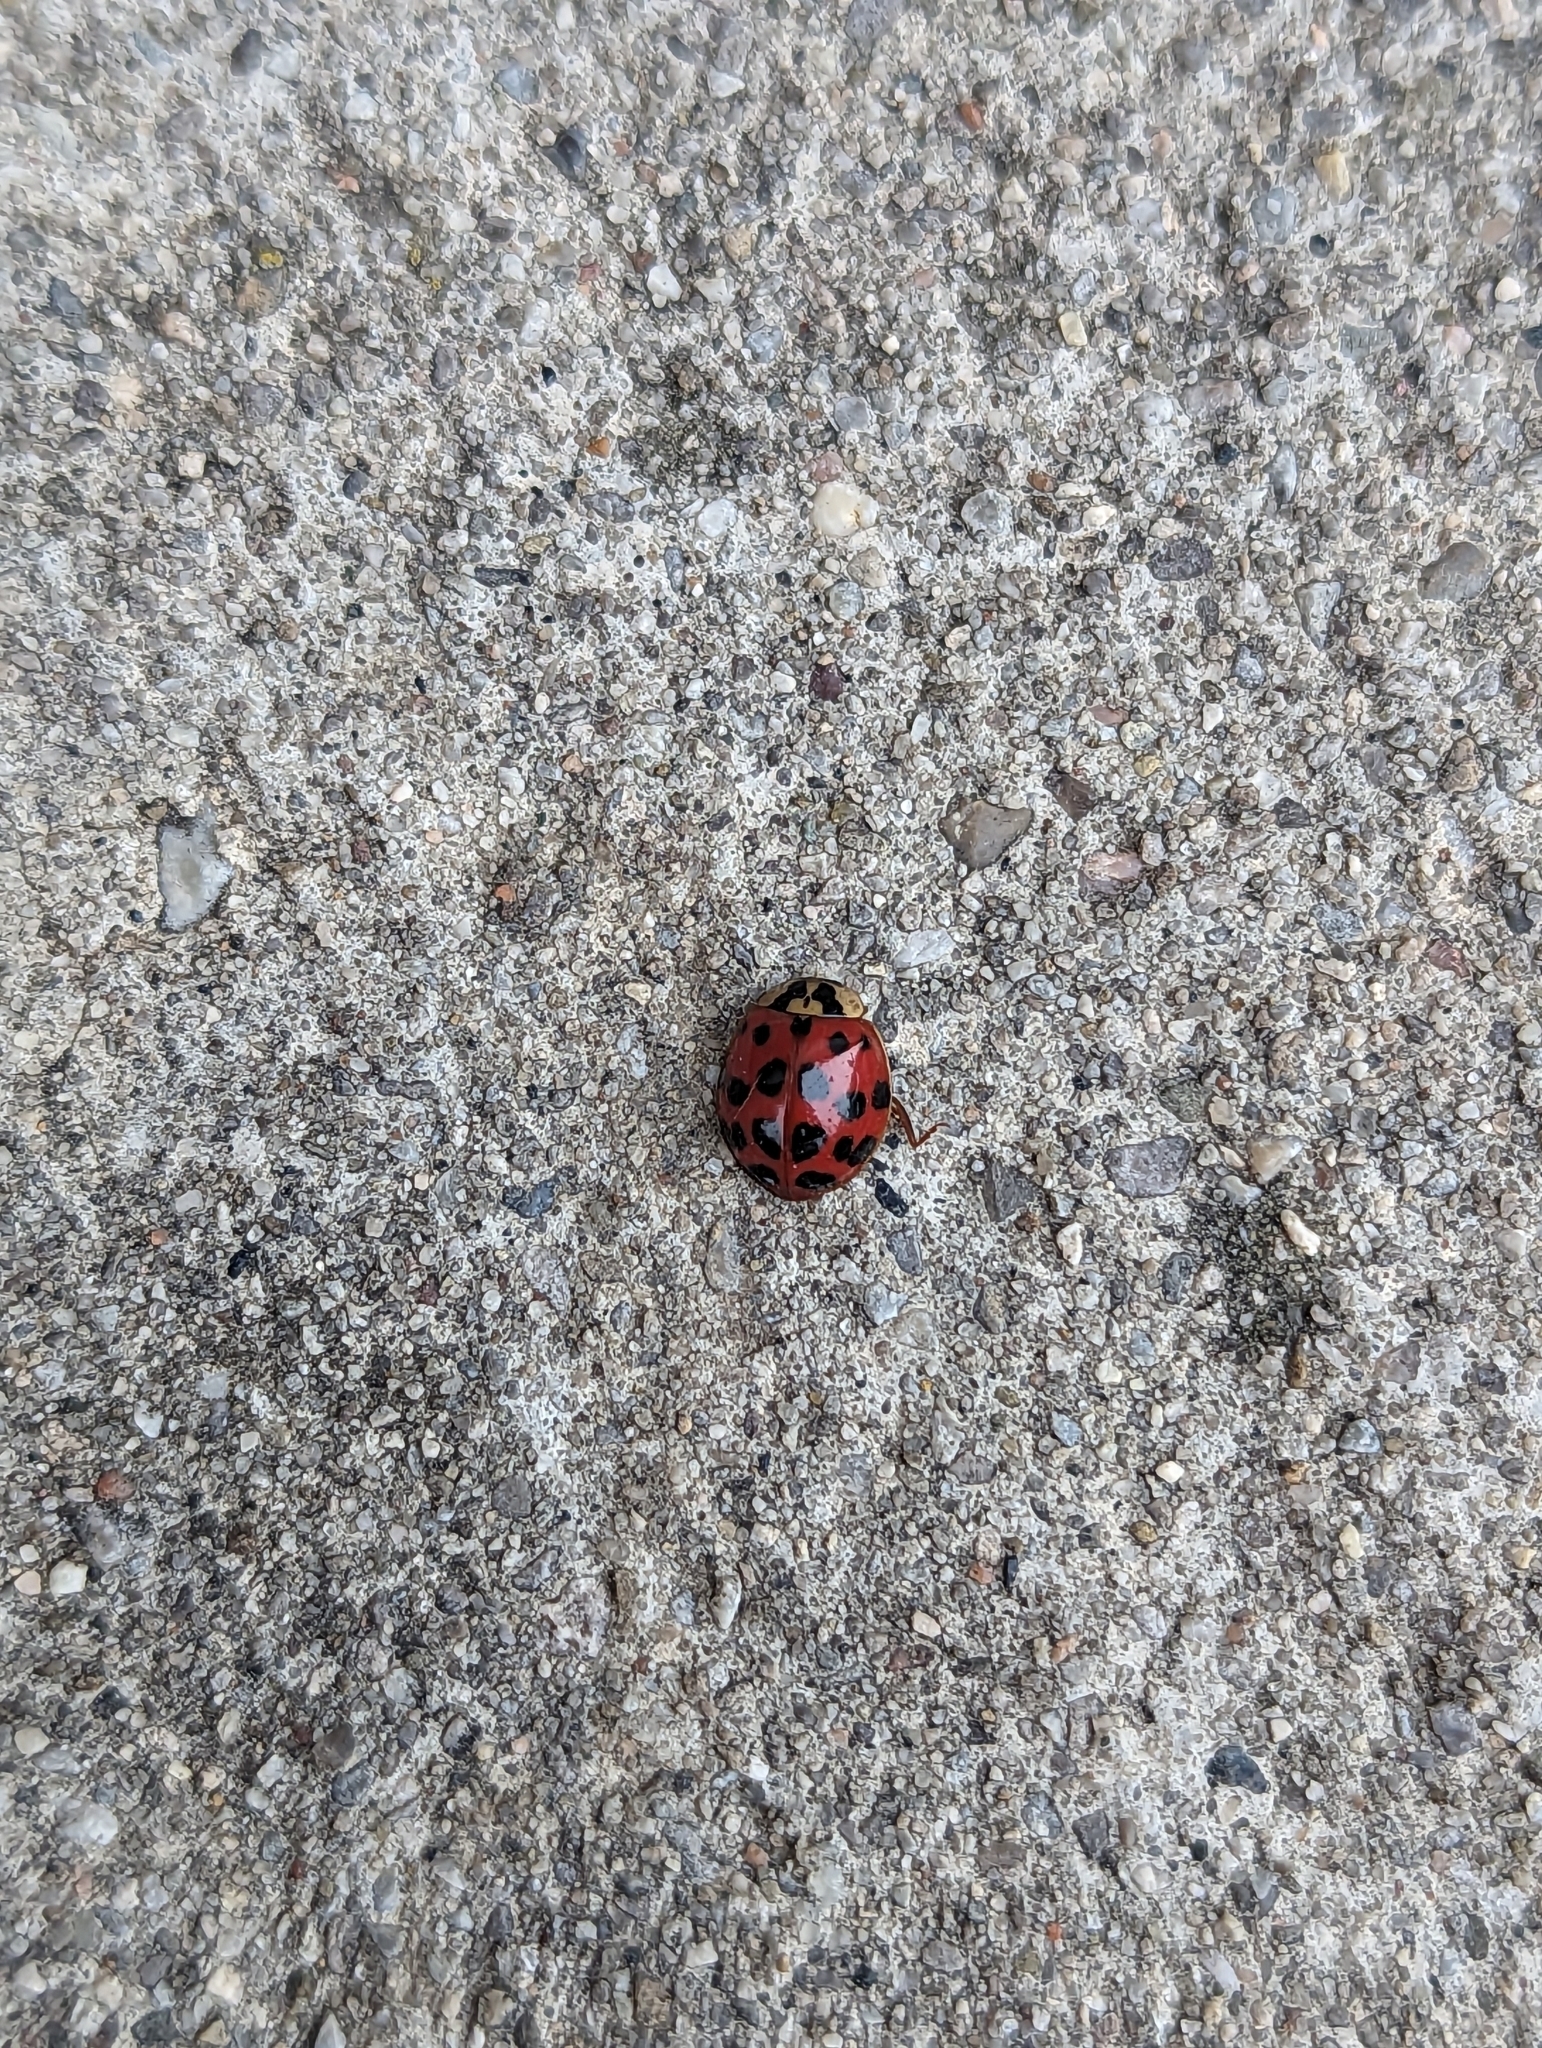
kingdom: Animalia
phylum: Arthropoda
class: Insecta
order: Coleoptera
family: Coccinellidae
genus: Harmonia
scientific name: Harmonia axyridis
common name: Harlequin ladybird
